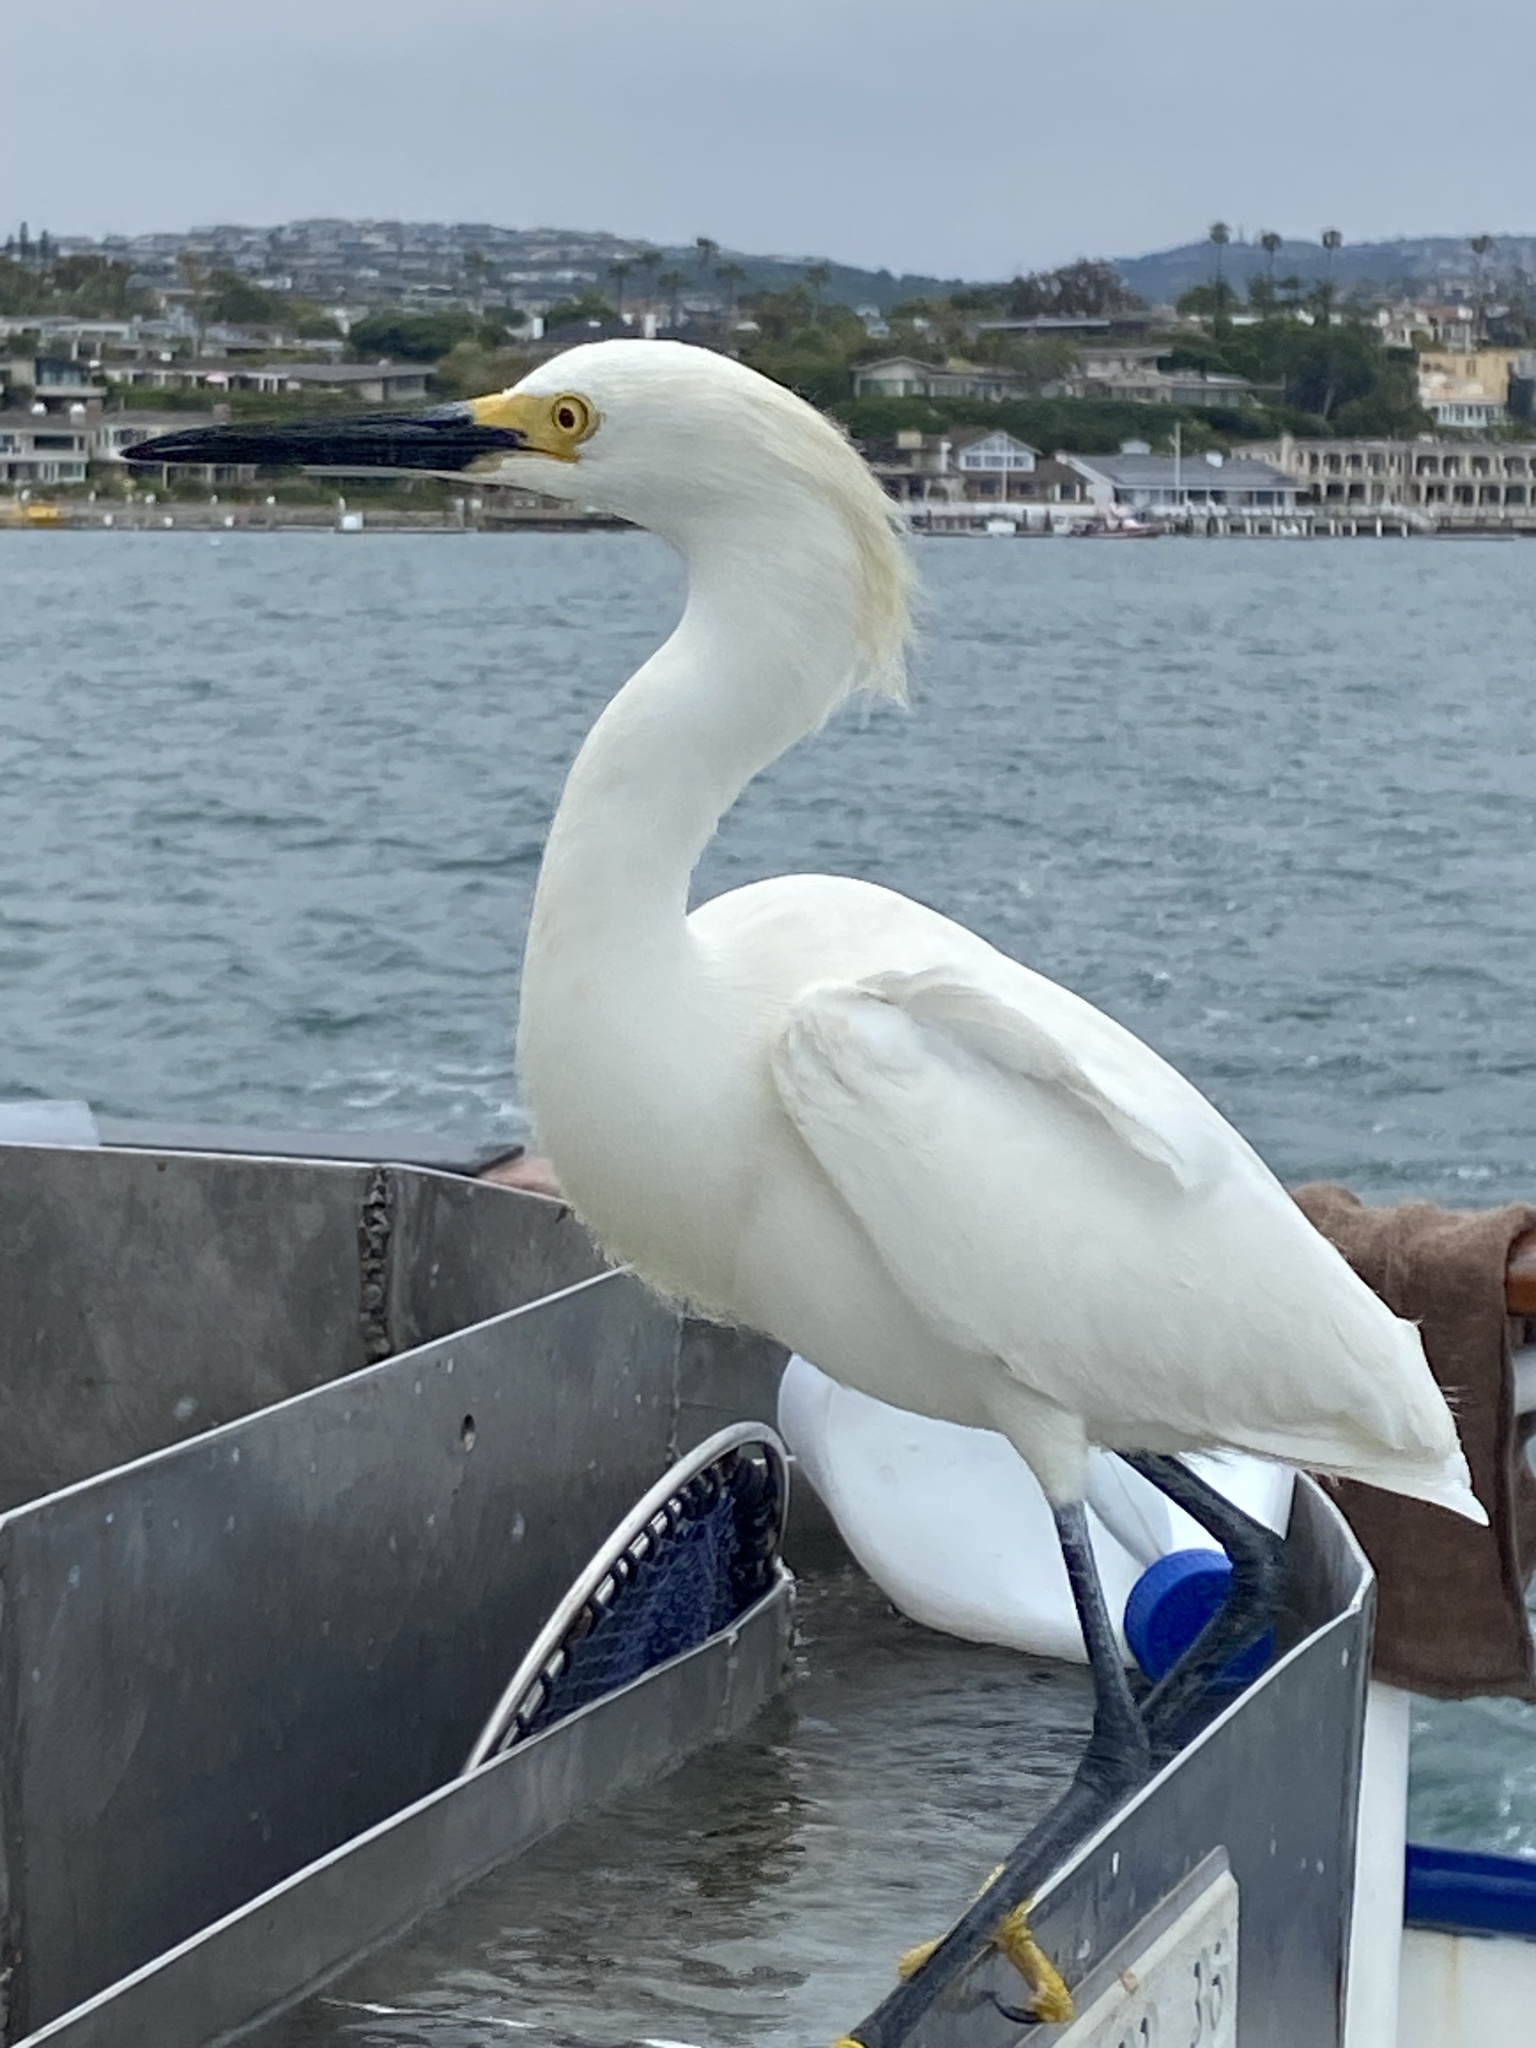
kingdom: Animalia
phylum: Chordata
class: Aves
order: Pelecaniformes
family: Ardeidae
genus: Egretta
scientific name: Egretta thula
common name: Snowy egret
